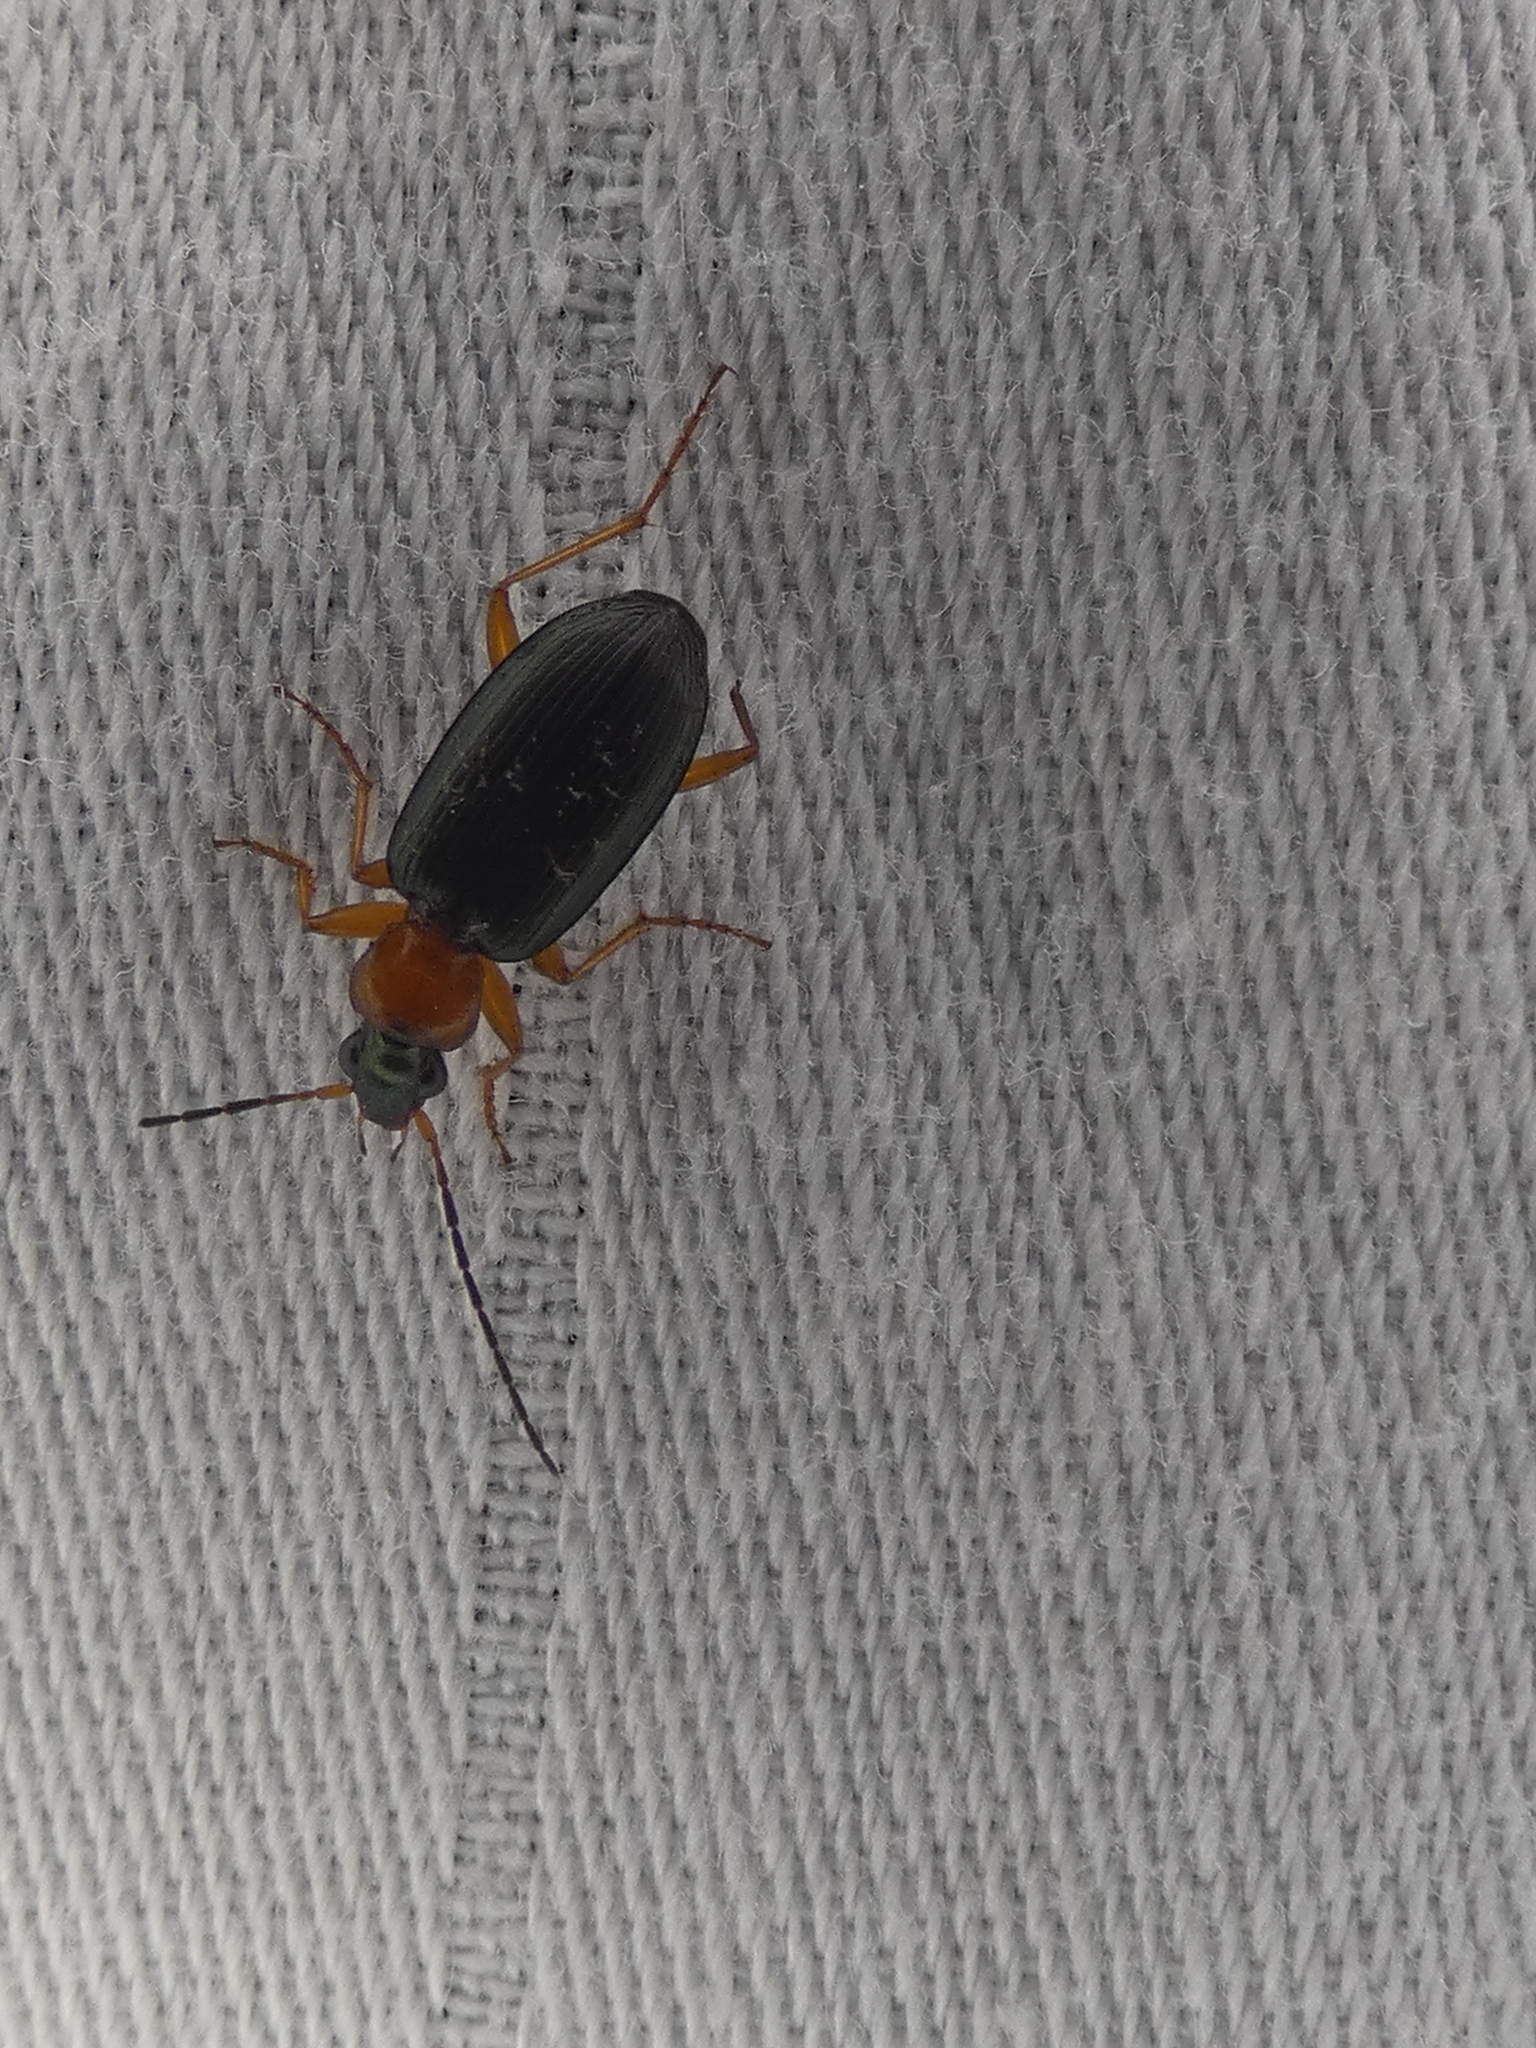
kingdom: Animalia
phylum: Arthropoda
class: Insecta
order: Coleoptera
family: Carabidae
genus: Agonum
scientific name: Agonum decorum
